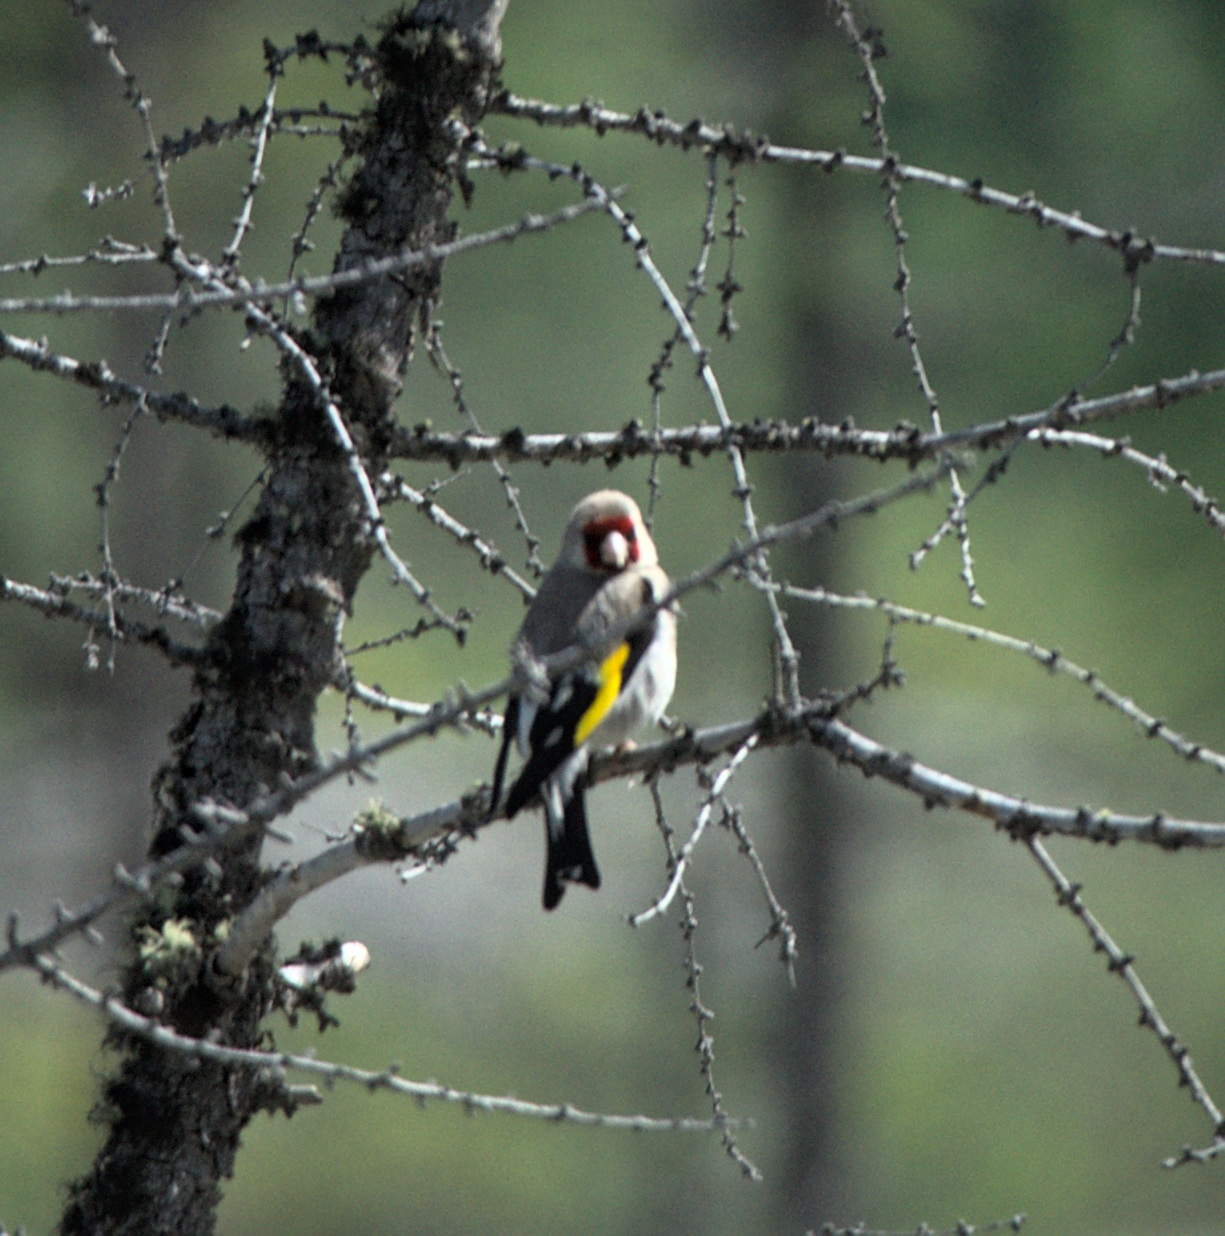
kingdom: Animalia
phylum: Chordata
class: Aves
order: Passeriformes
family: Fringillidae
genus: Carduelis
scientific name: Carduelis carduelis
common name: European goldfinch
